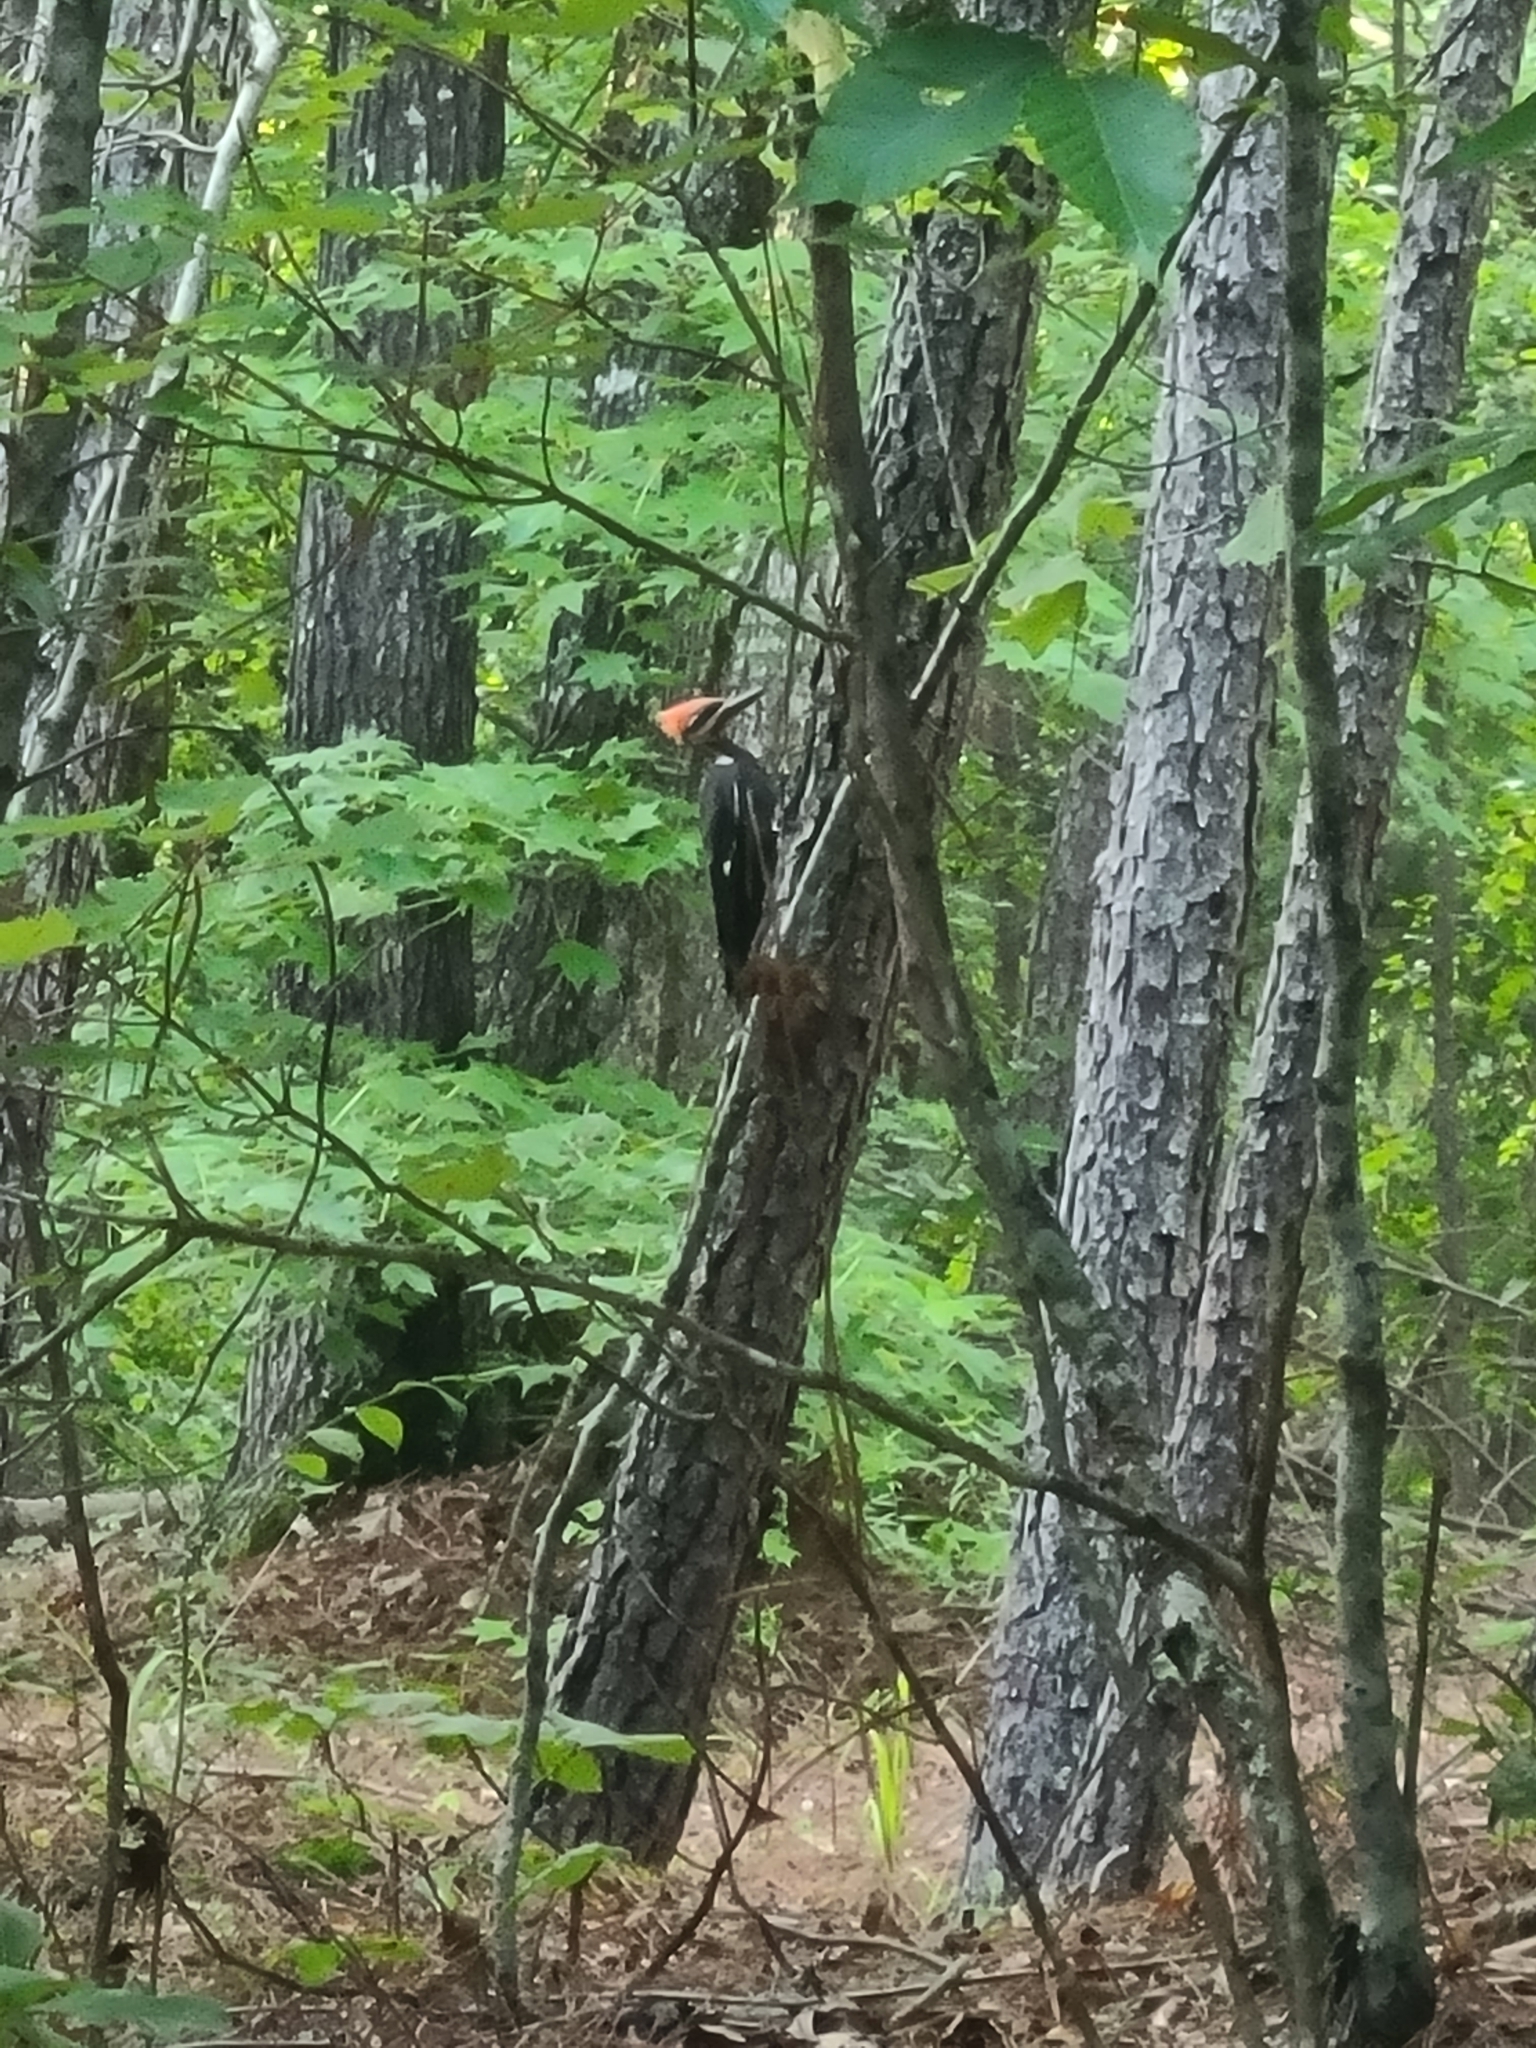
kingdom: Animalia
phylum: Chordata
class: Aves
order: Piciformes
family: Picidae
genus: Dryocopus
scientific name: Dryocopus pileatus
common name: Pileated woodpecker
